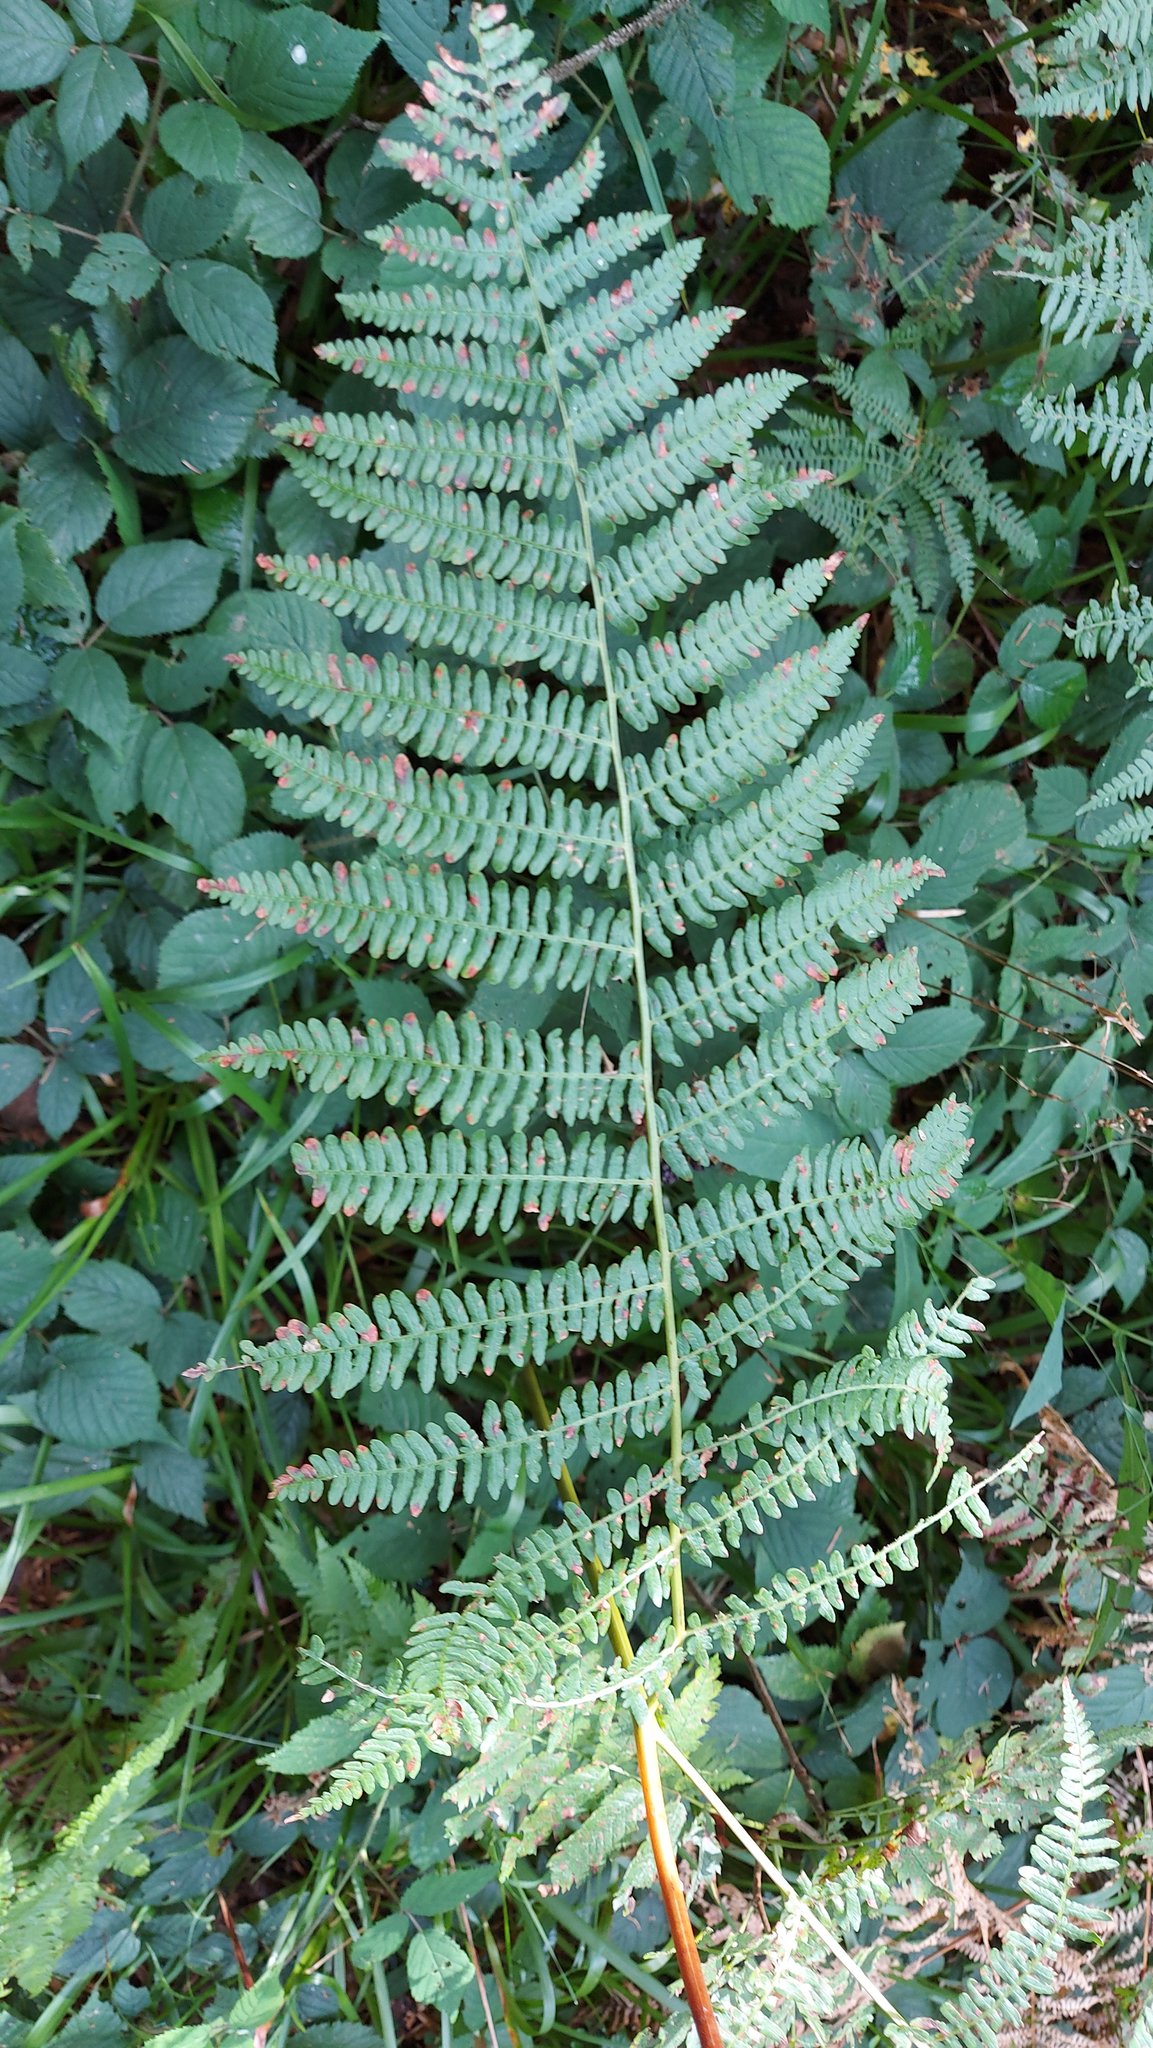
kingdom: Plantae
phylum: Tracheophyta
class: Polypodiopsida
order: Polypodiales
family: Dennstaedtiaceae
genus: Pteridium
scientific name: Pteridium aquilinum
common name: Bracken
